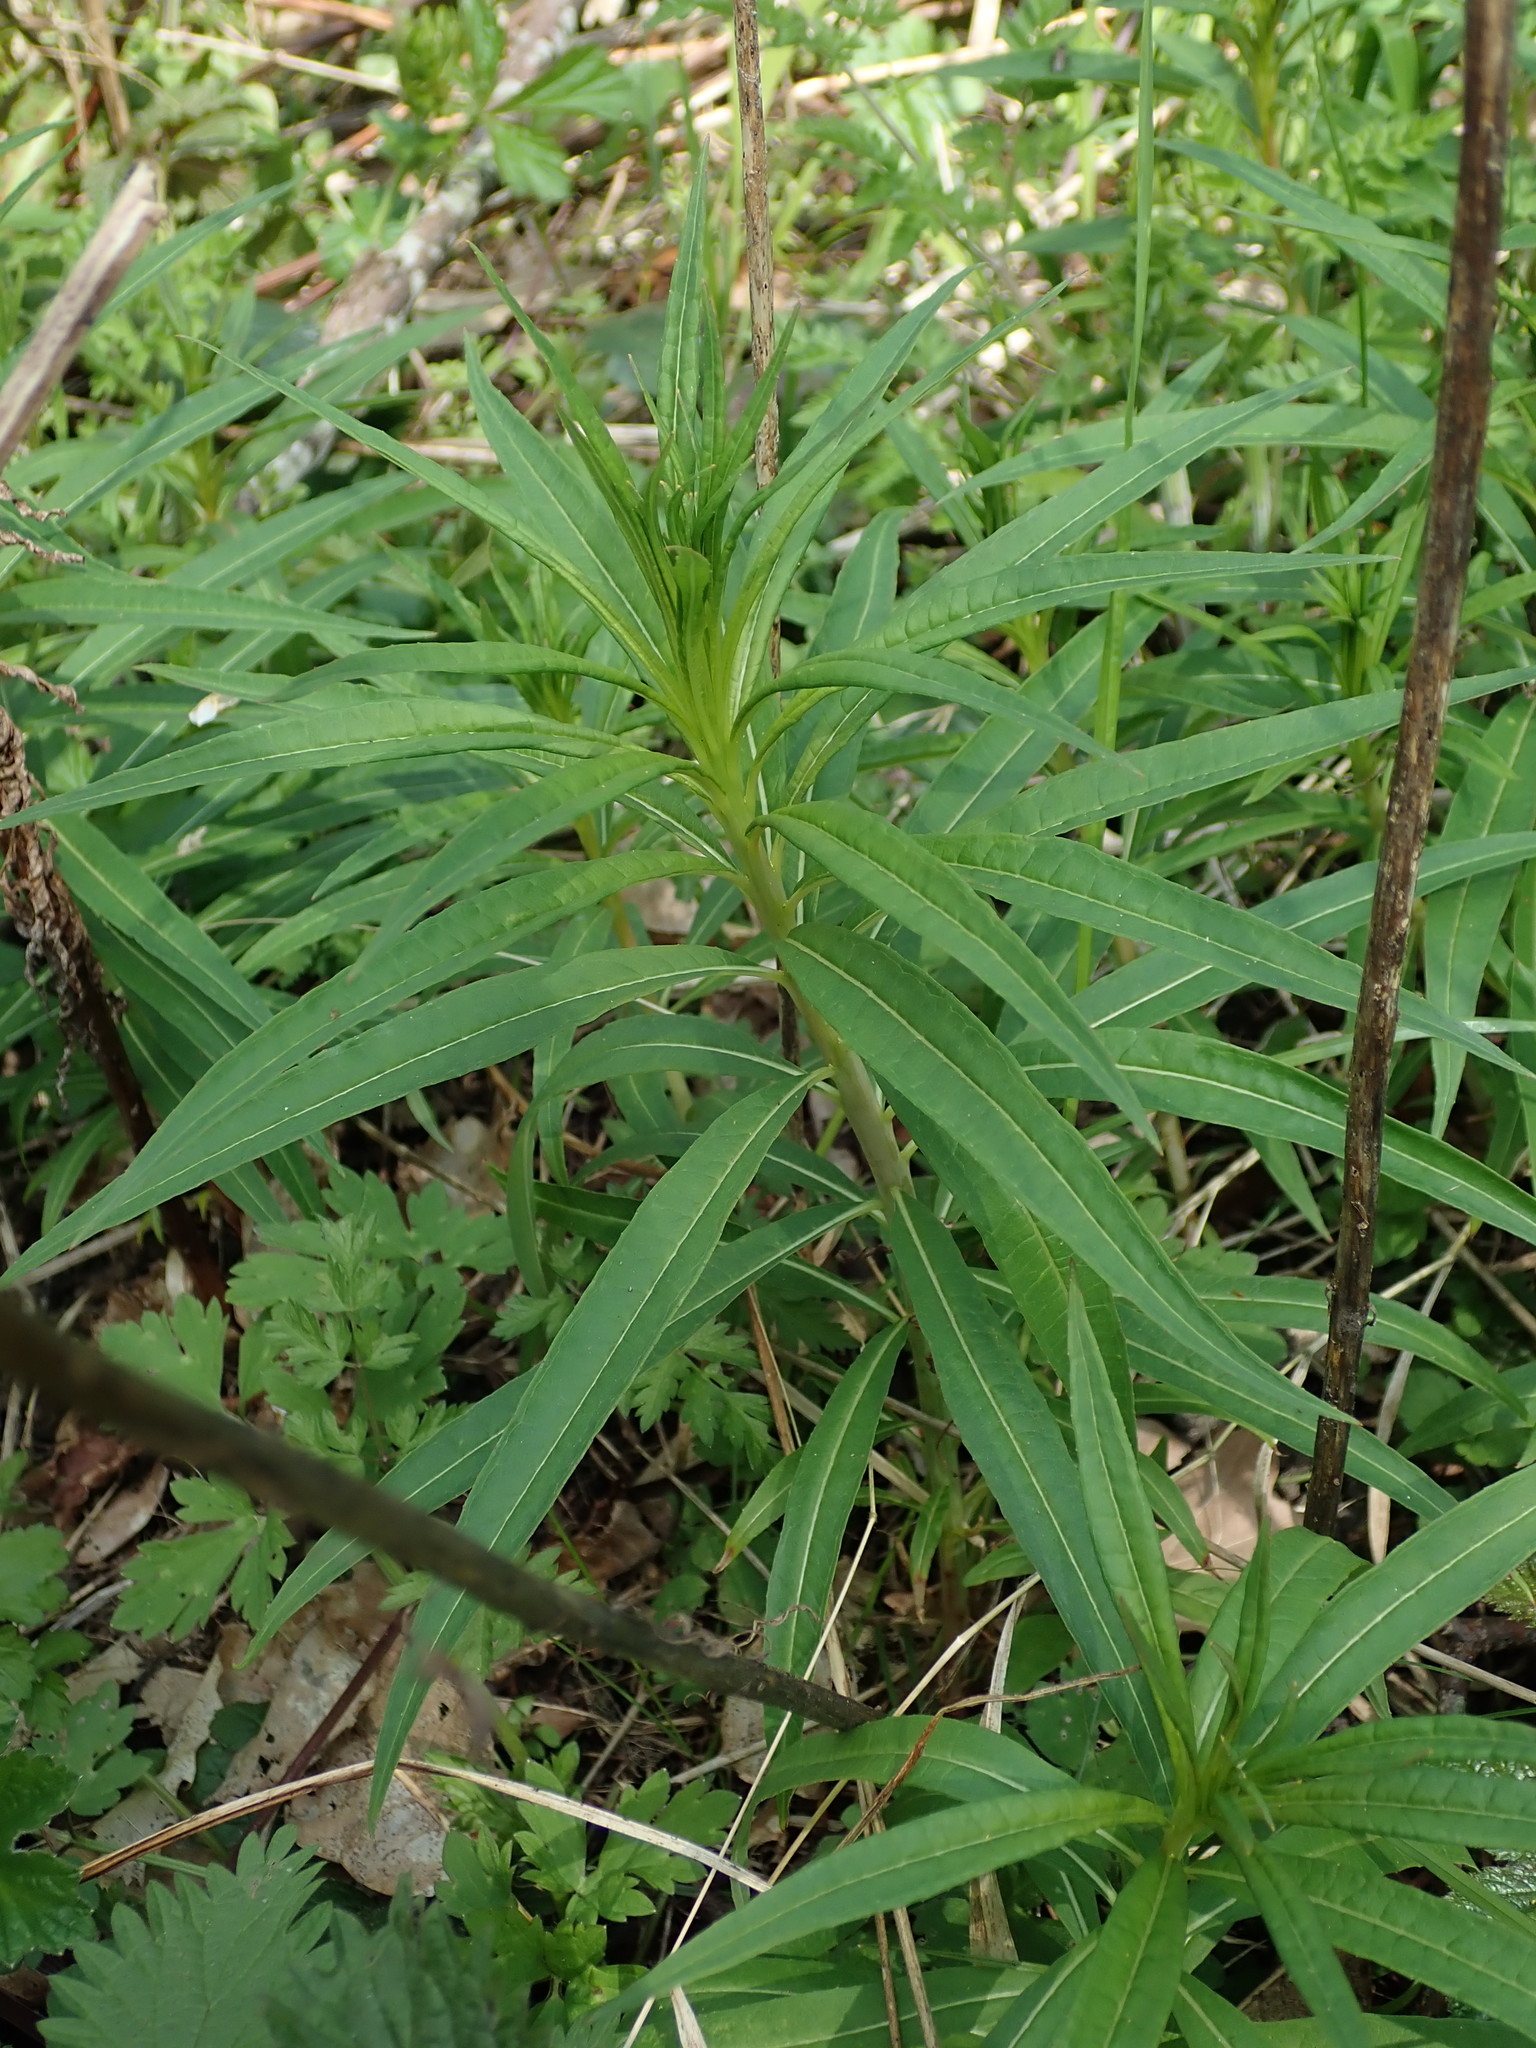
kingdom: Plantae
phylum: Tracheophyta
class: Magnoliopsida
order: Myrtales
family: Onagraceae
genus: Chamaenerion
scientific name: Chamaenerion angustifolium
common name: Fireweed
